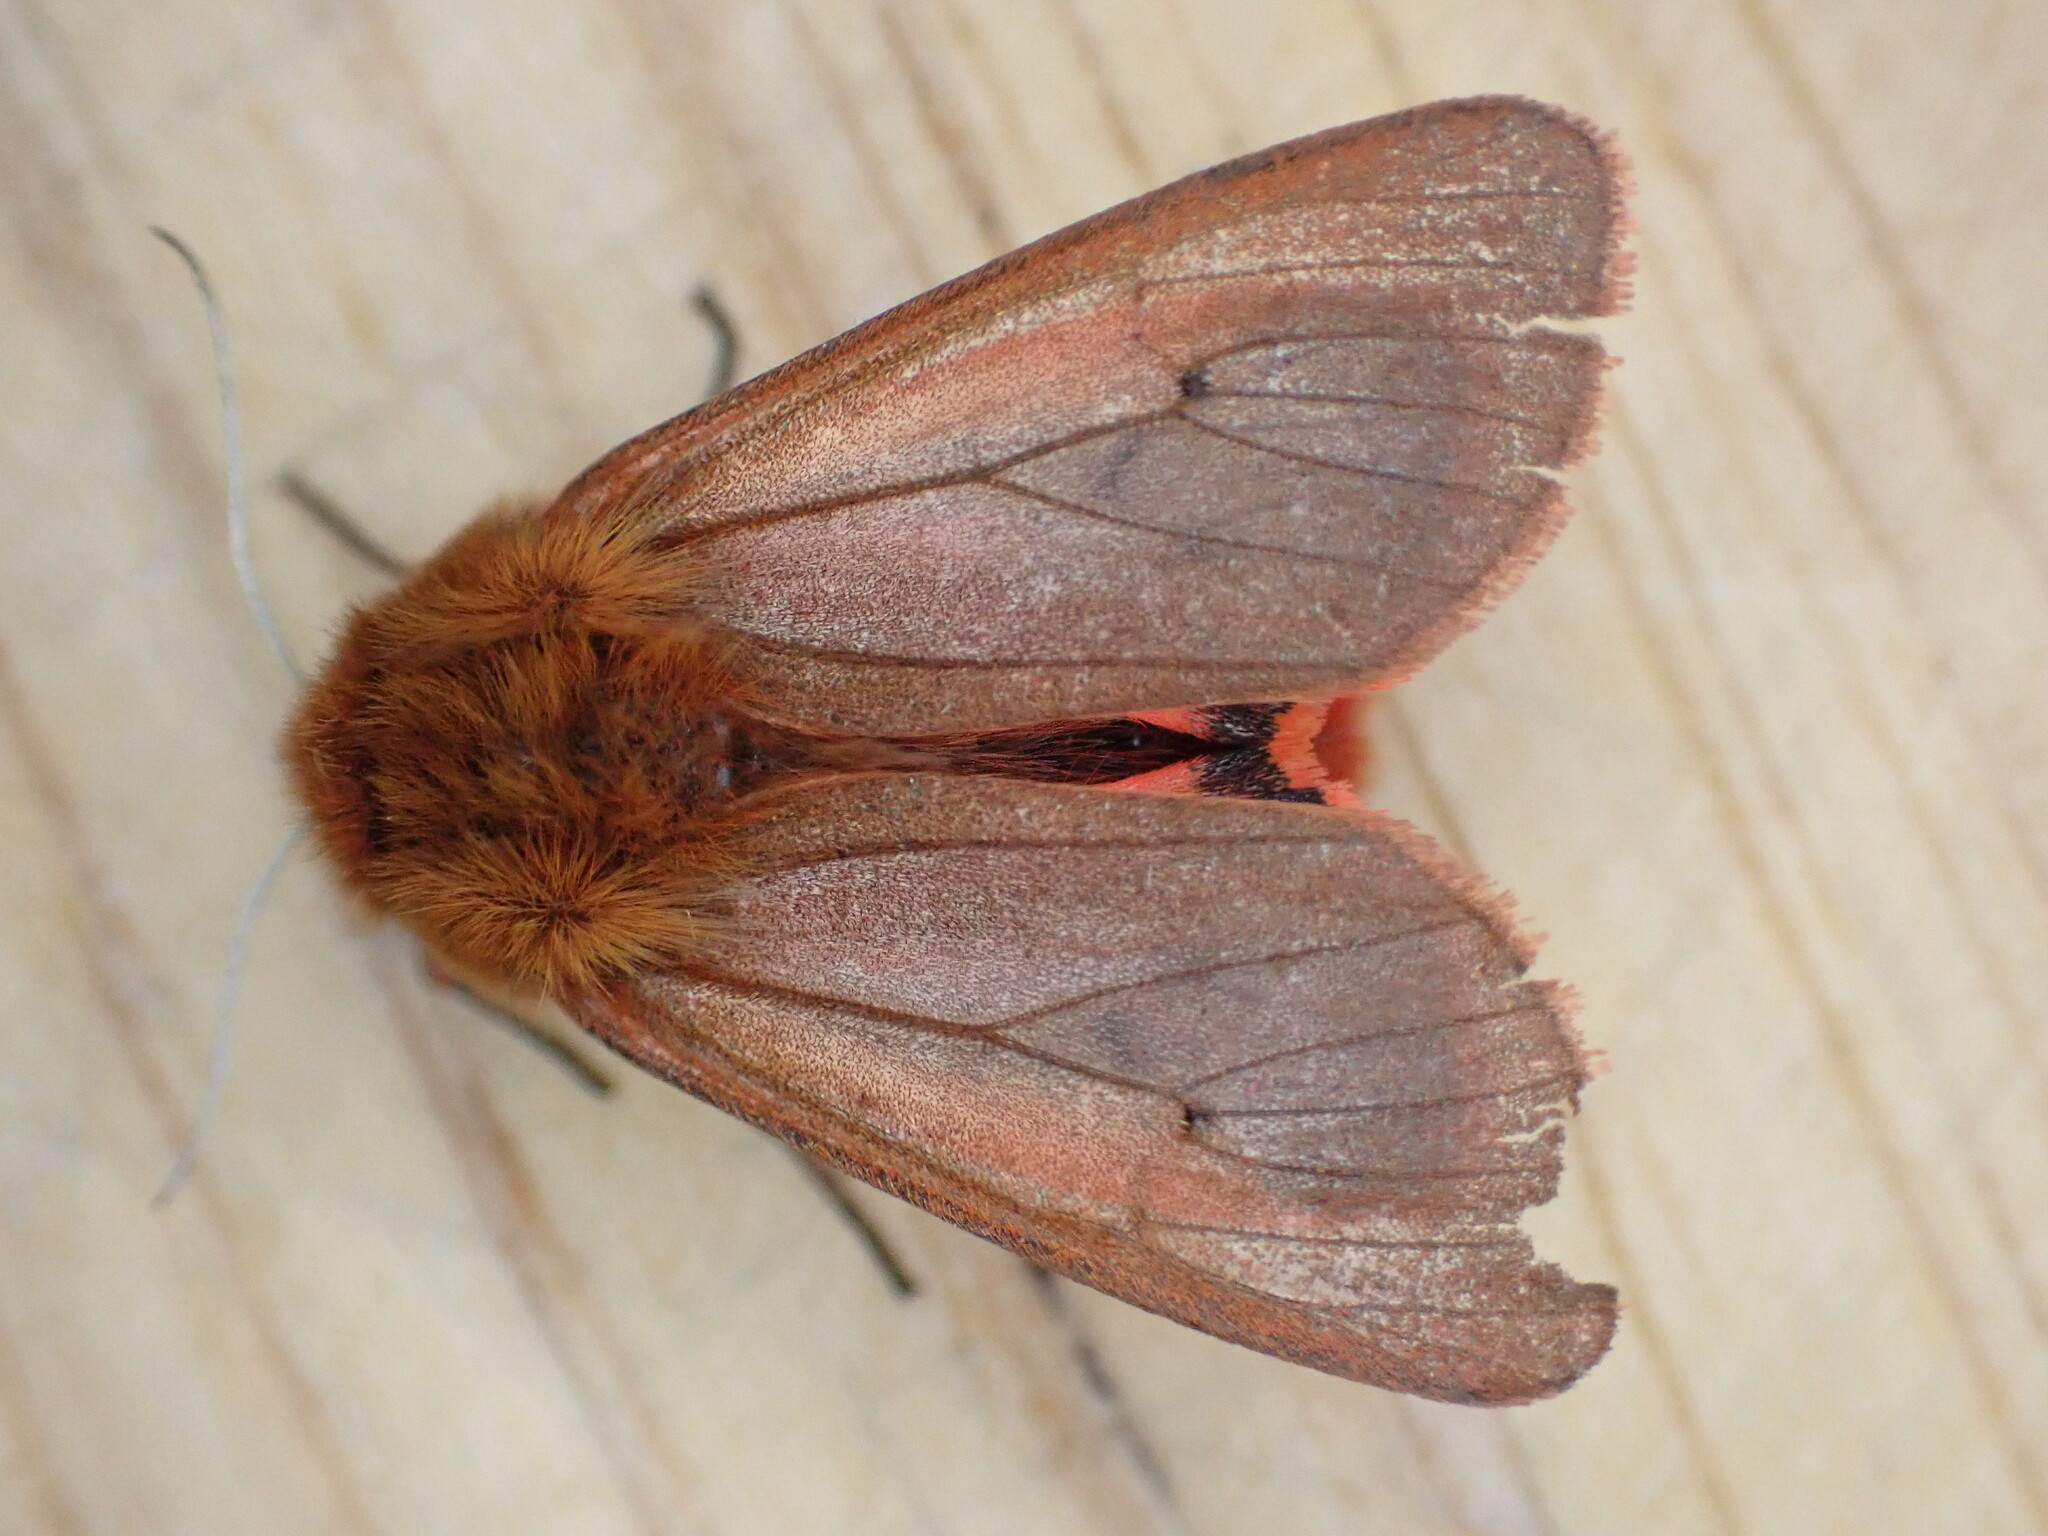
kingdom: Animalia
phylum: Arthropoda
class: Insecta
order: Lepidoptera
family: Erebidae
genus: Phragmatobia
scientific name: Phragmatobia fuliginosa
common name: Ruby tiger
